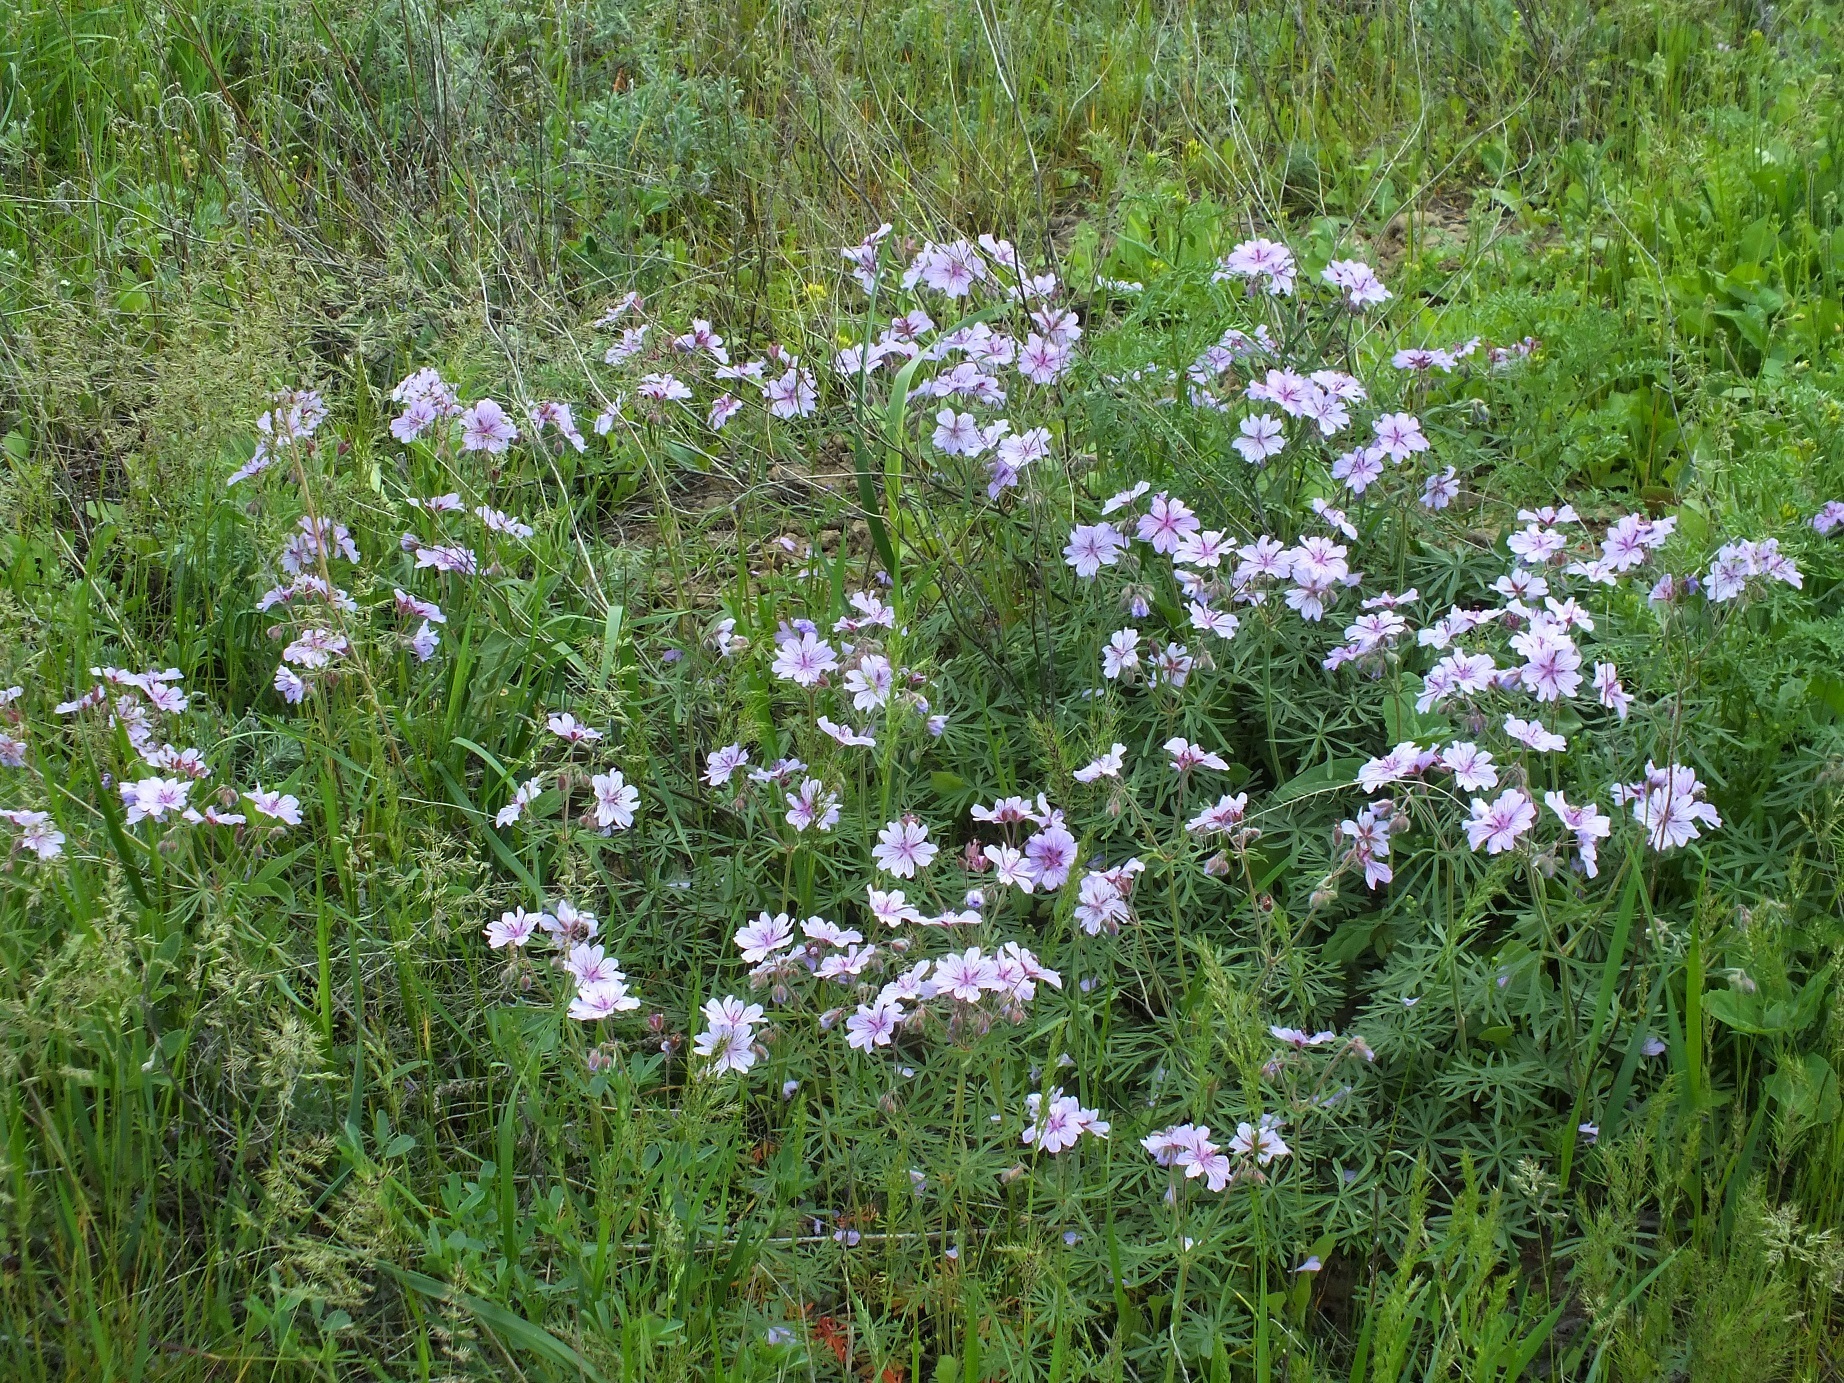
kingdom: Plantae
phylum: Tracheophyta
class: Magnoliopsida
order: Geraniales
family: Geraniaceae
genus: Geranium
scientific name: Geranium linearilobum
